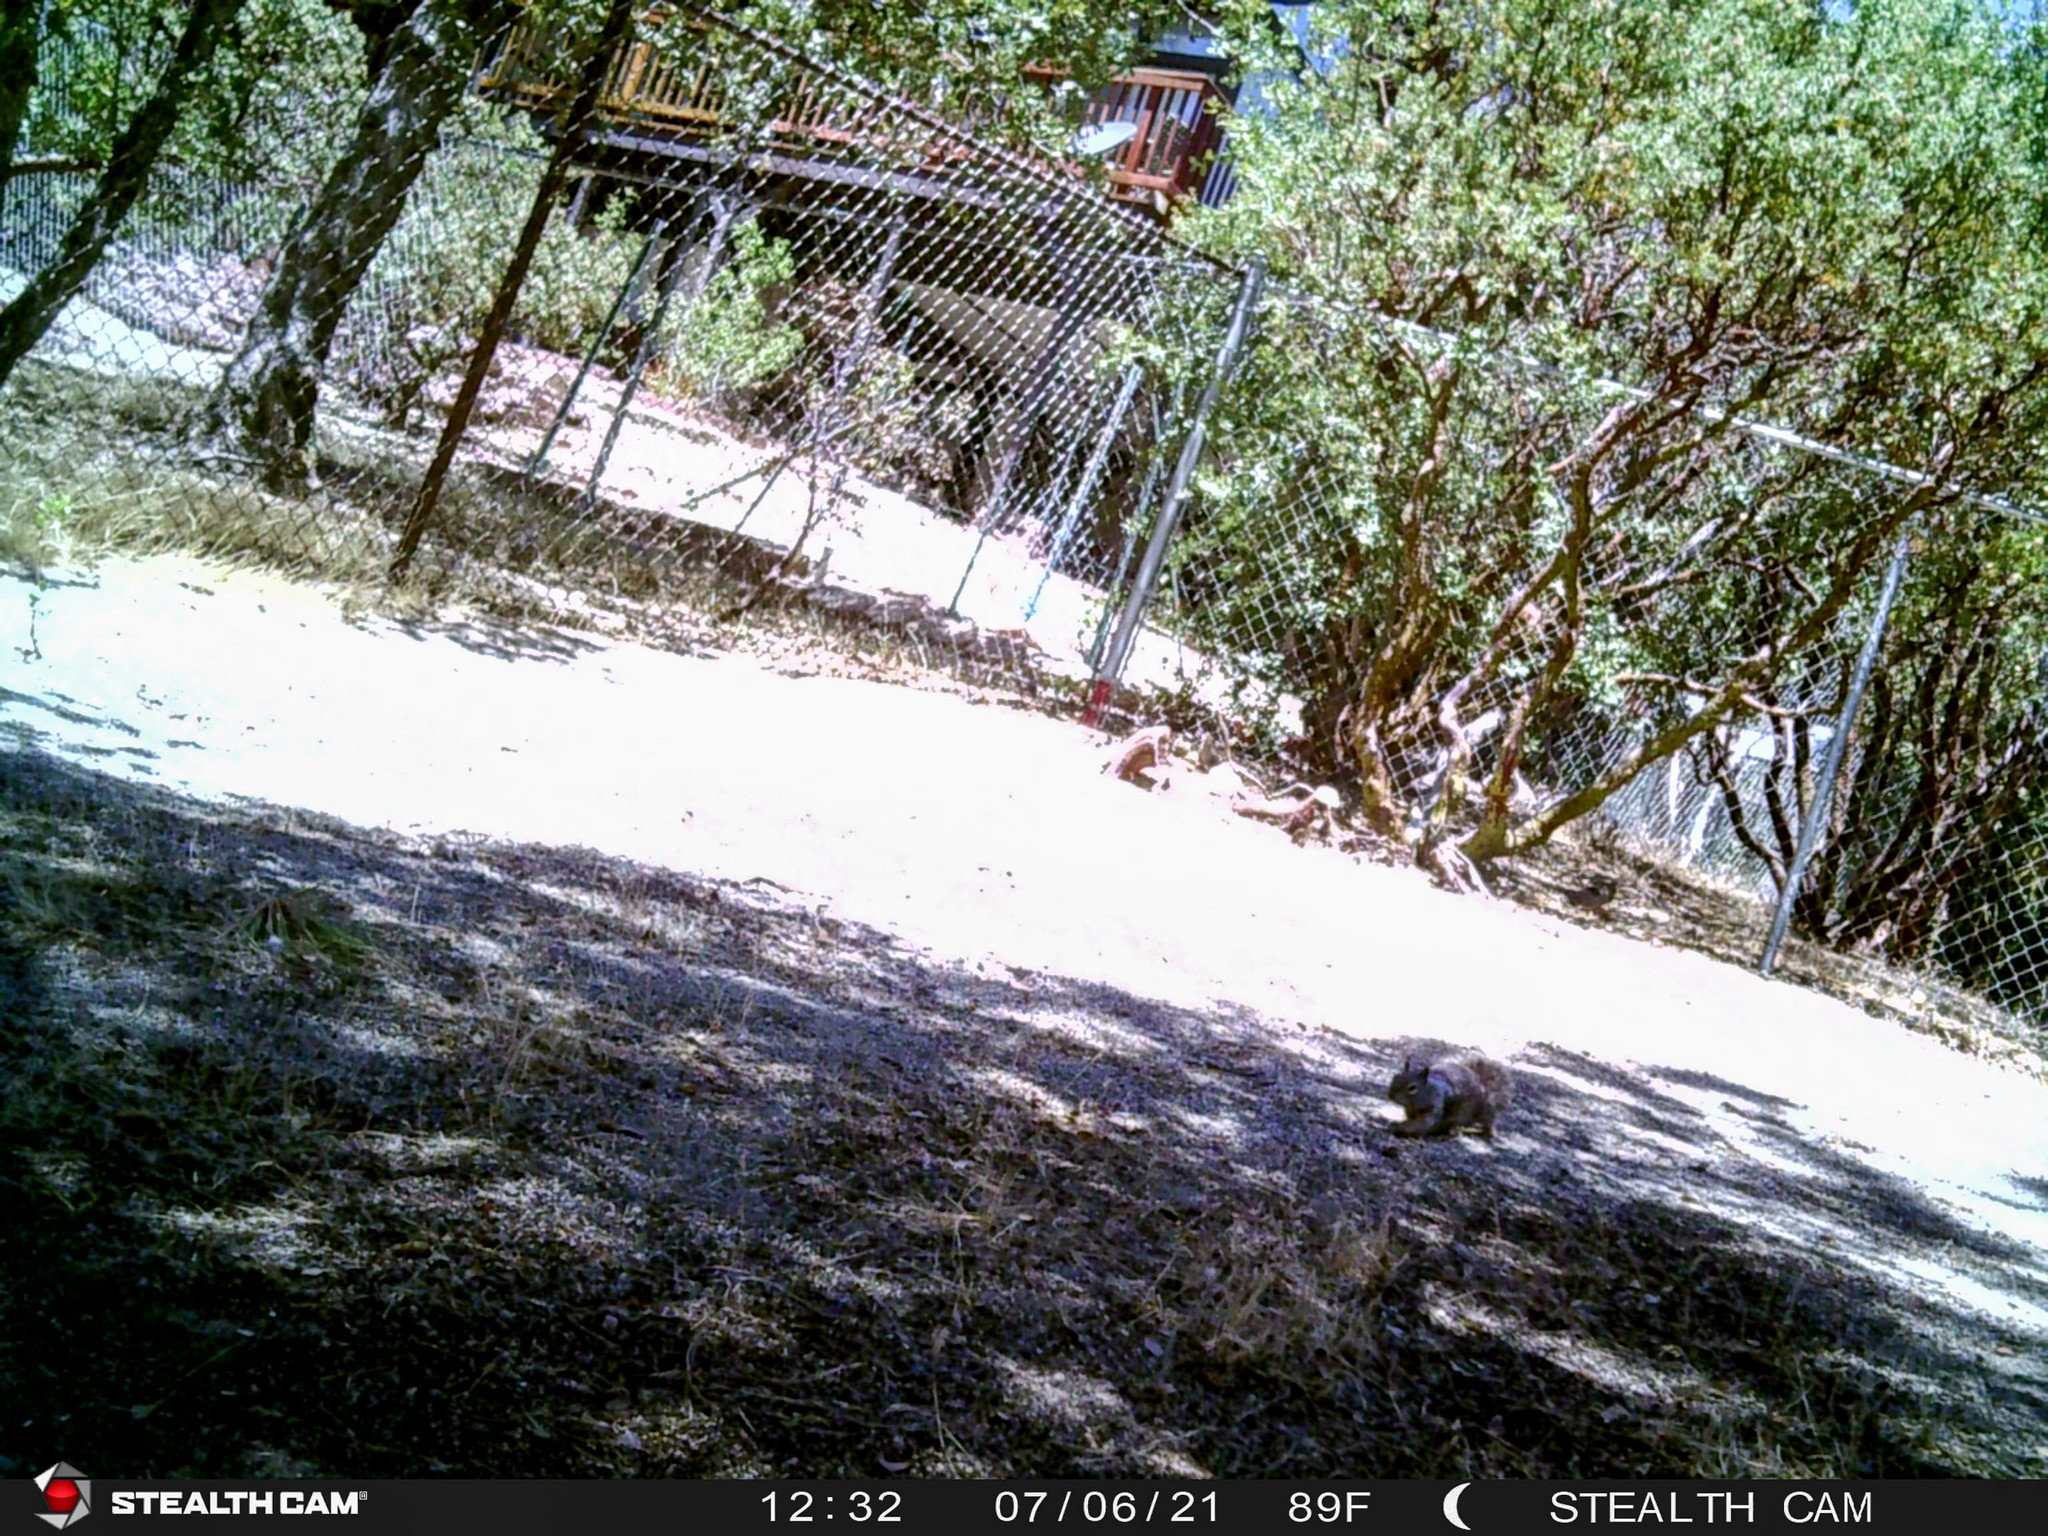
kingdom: Animalia
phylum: Chordata
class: Mammalia
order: Rodentia
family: Sciuridae
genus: Otospermophilus
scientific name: Otospermophilus beecheyi
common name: California ground squirrel
